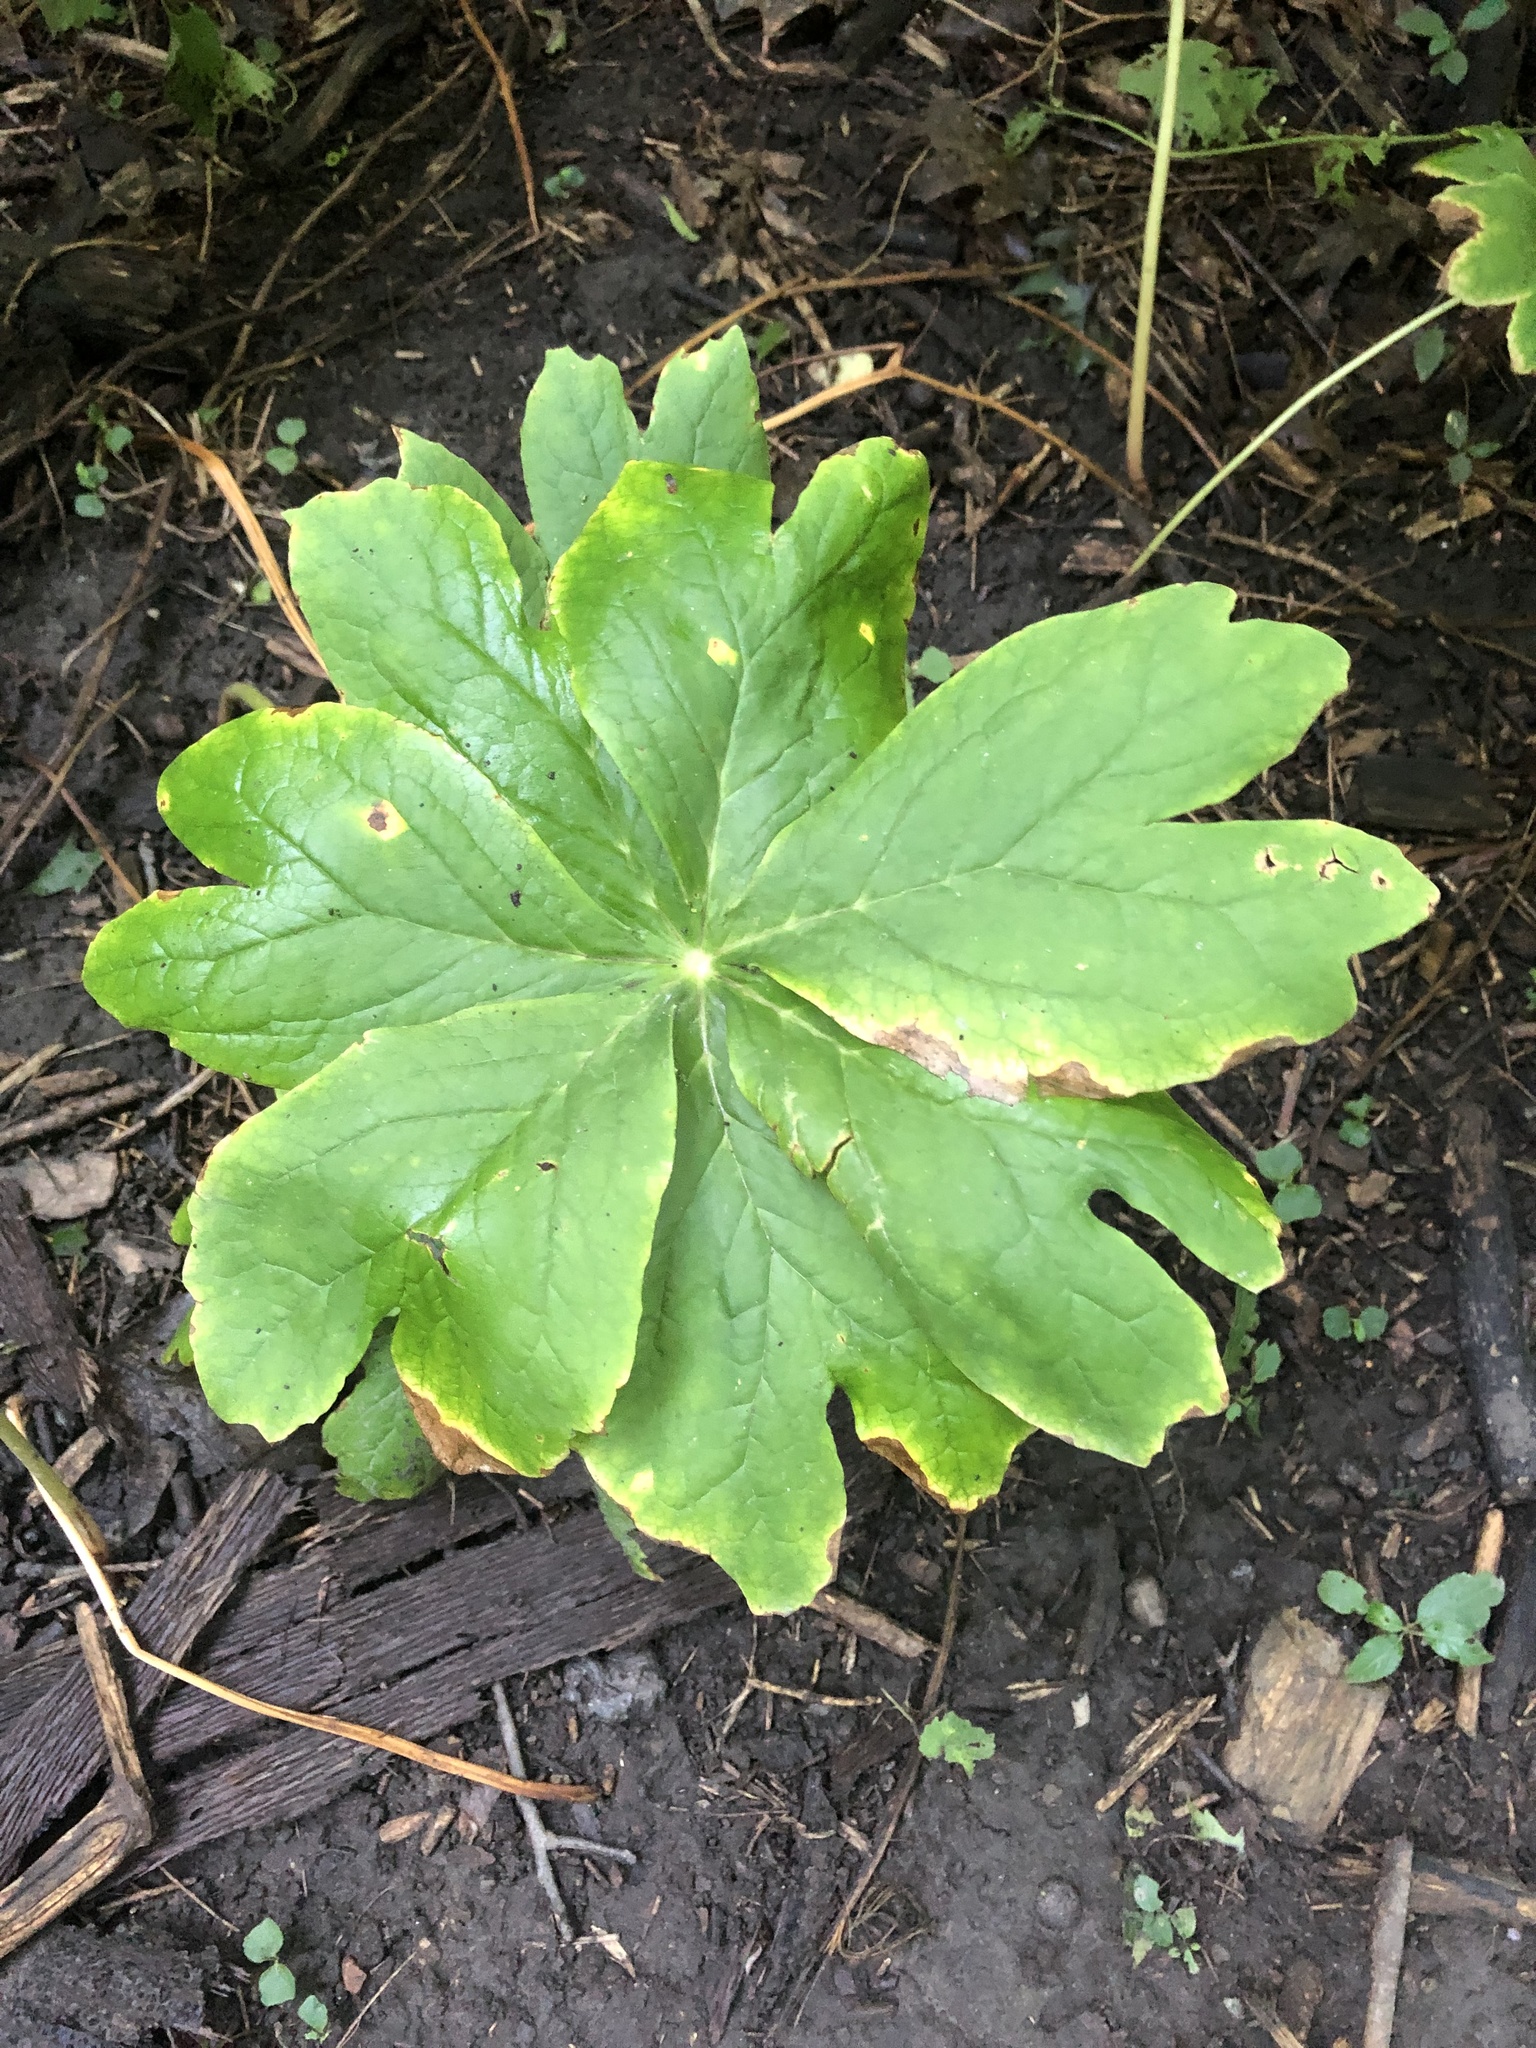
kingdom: Plantae
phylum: Tracheophyta
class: Magnoliopsida
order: Ranunculales
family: Berberidaceae
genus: Podophyllum
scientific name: Podophyllum peltatum
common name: Wild mandrake
